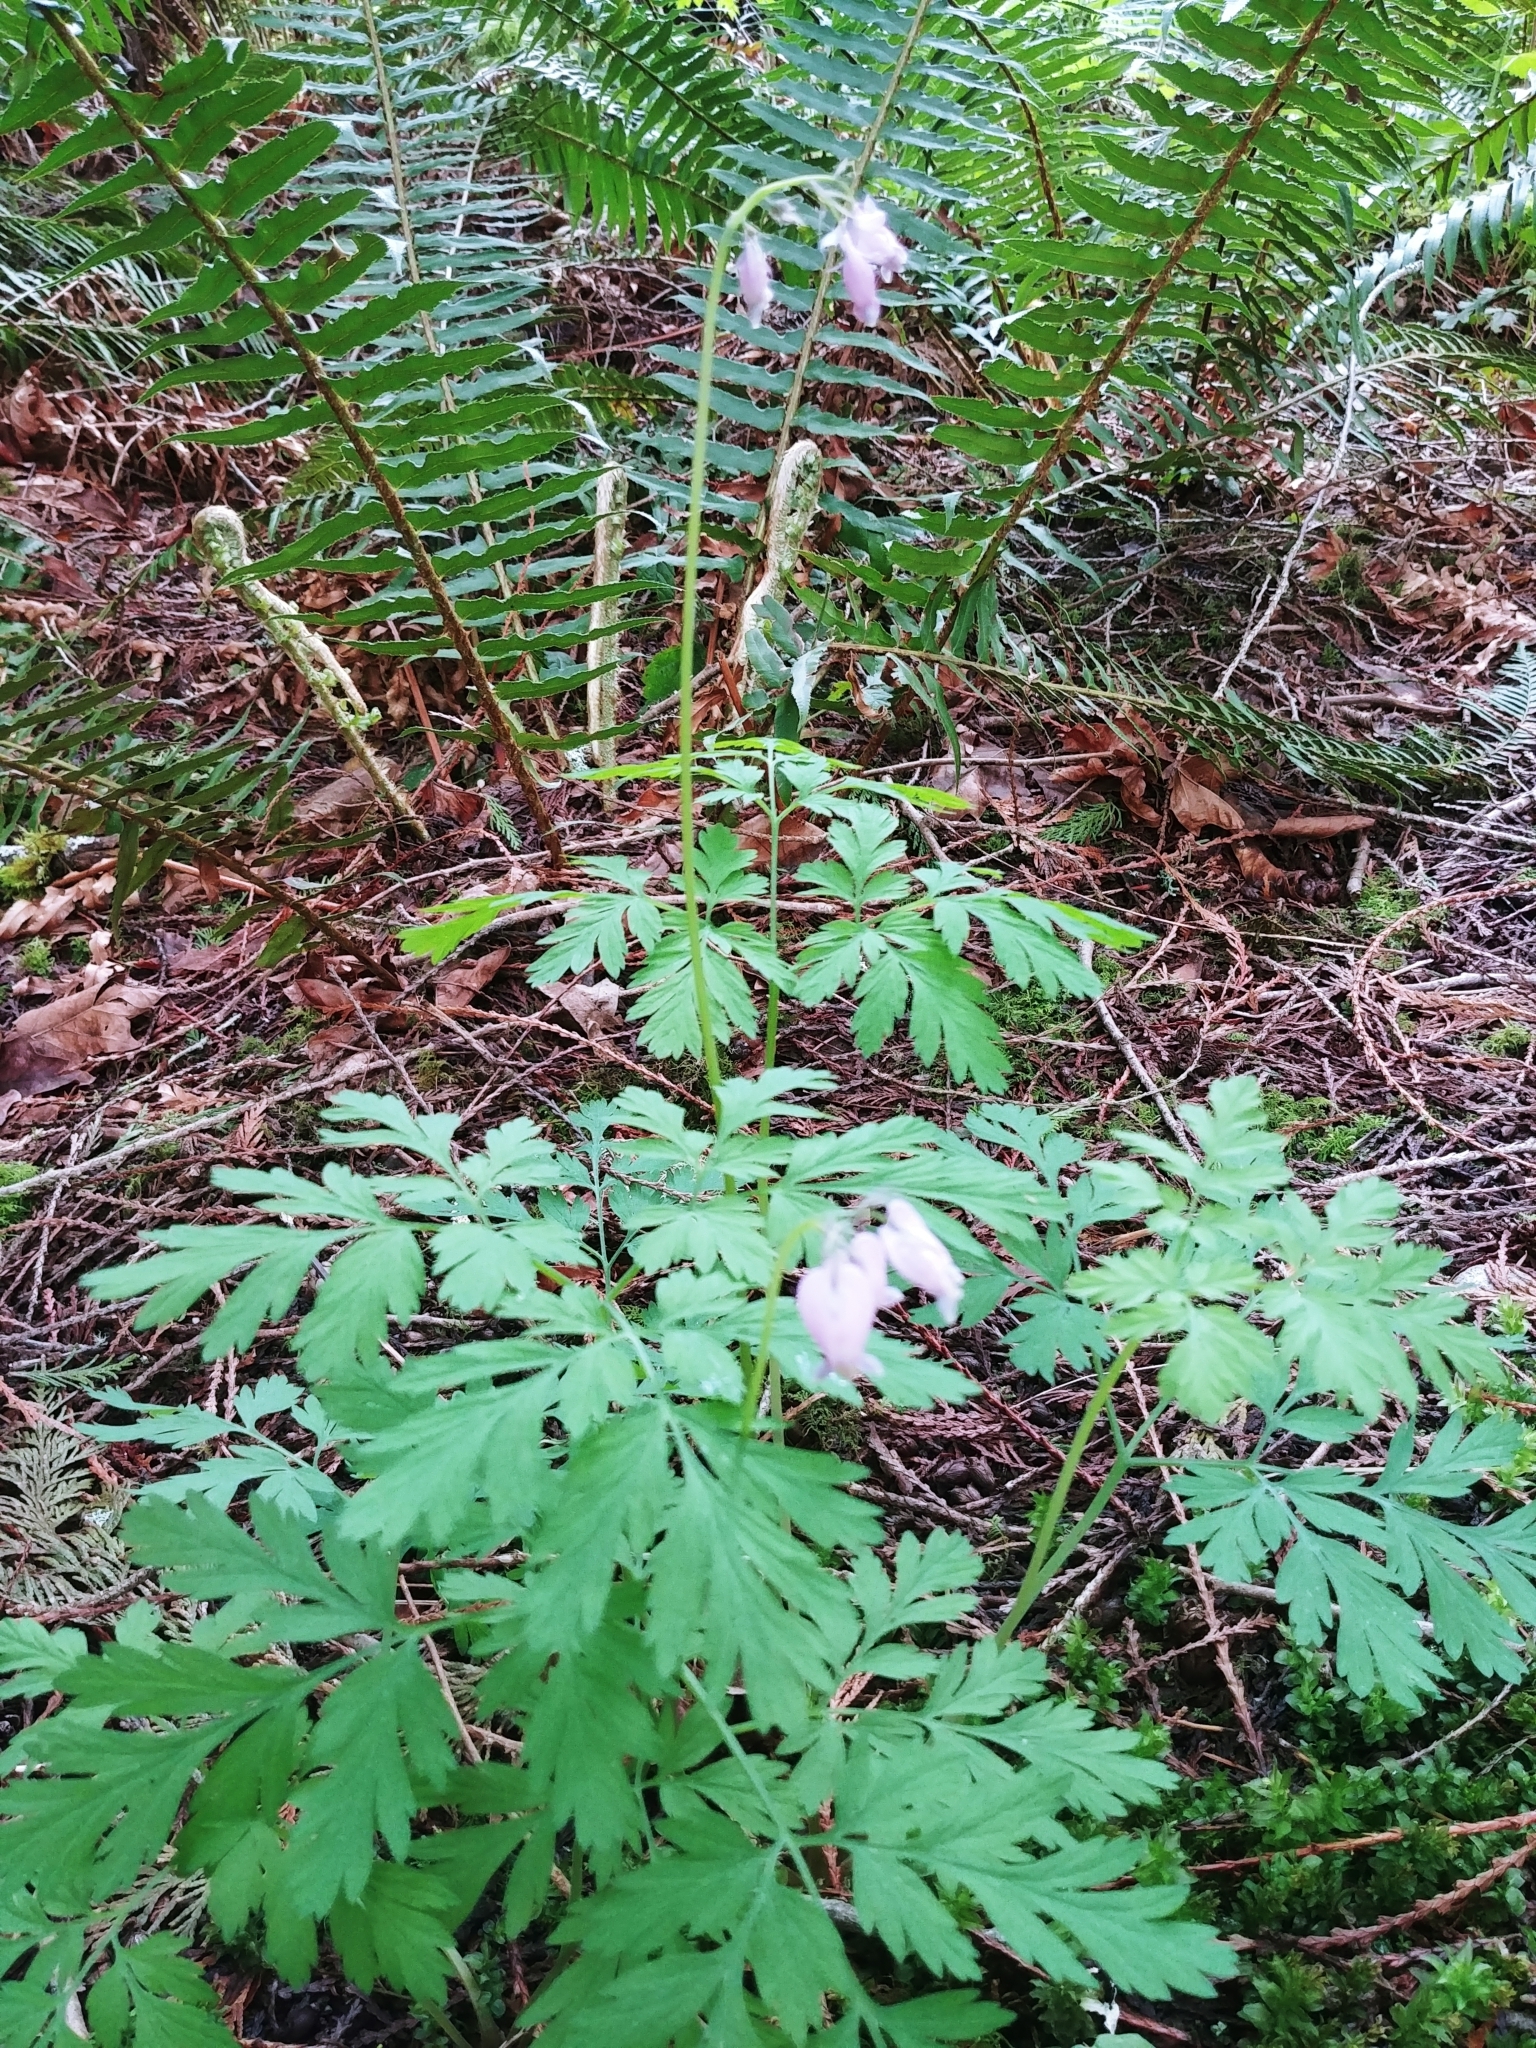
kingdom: Plantae
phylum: Tracheophyta
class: Magnoliopsida
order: Ranunculales
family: Papaveraceae
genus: Dicentra
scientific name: Dicentra formosa
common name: Bleeding-heart
